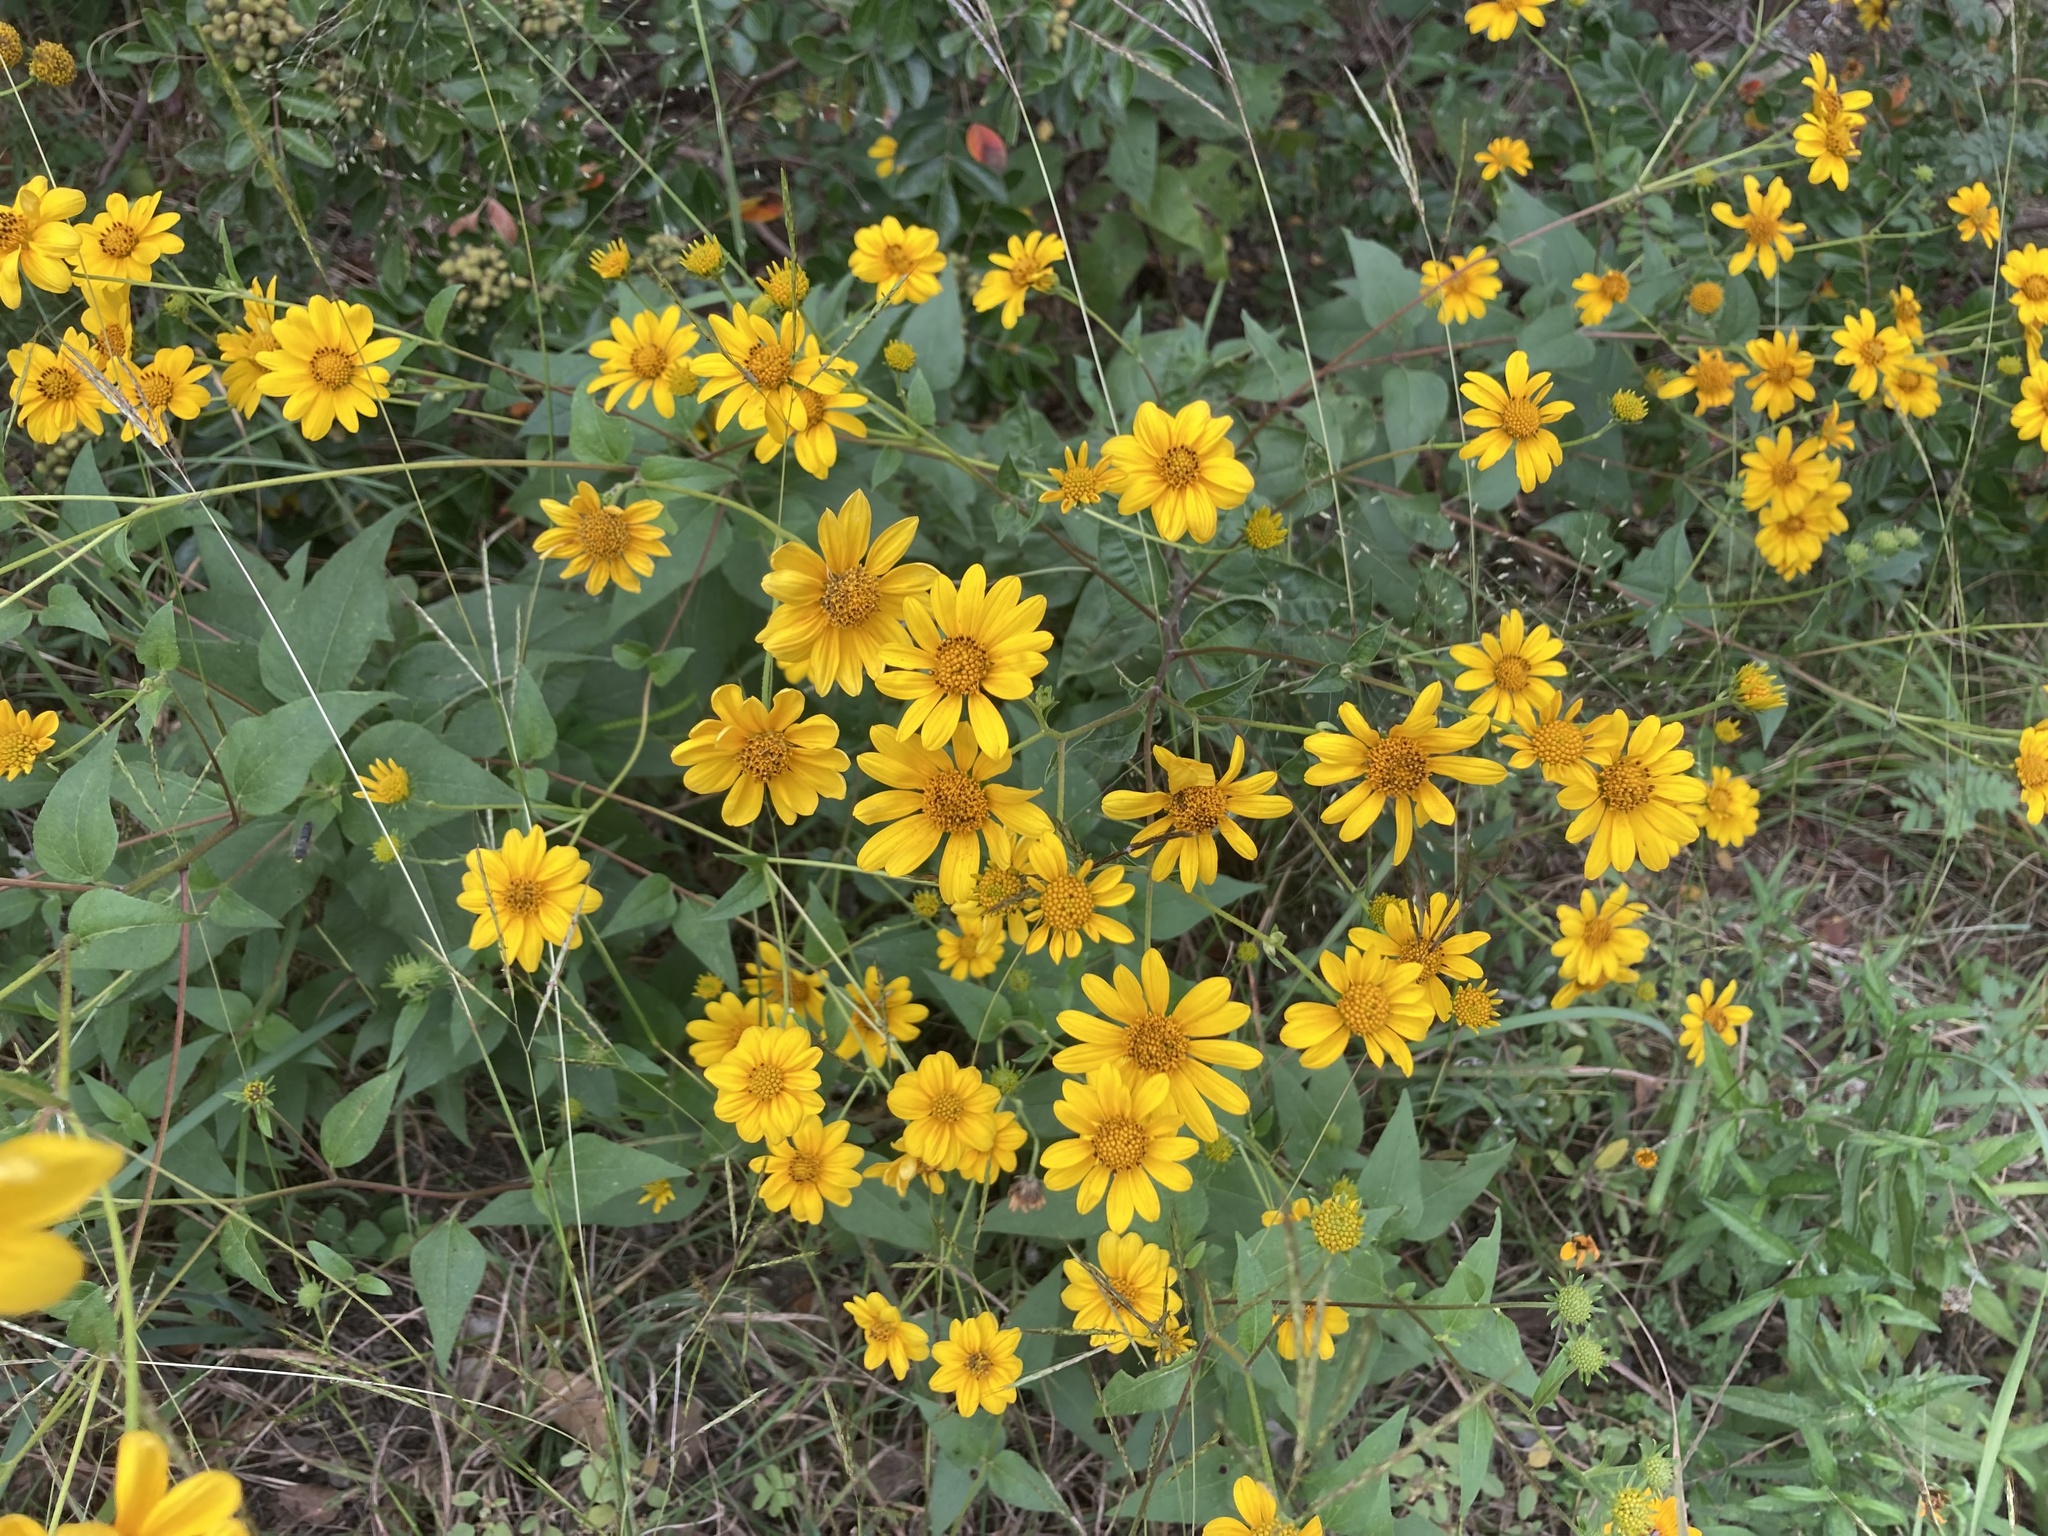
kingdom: Plantae
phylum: Tracheophyta
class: Magnoliopsida
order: Asterales
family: Asteraceae
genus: Viguiera
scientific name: Viguiera dentata
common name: Toothleaf
